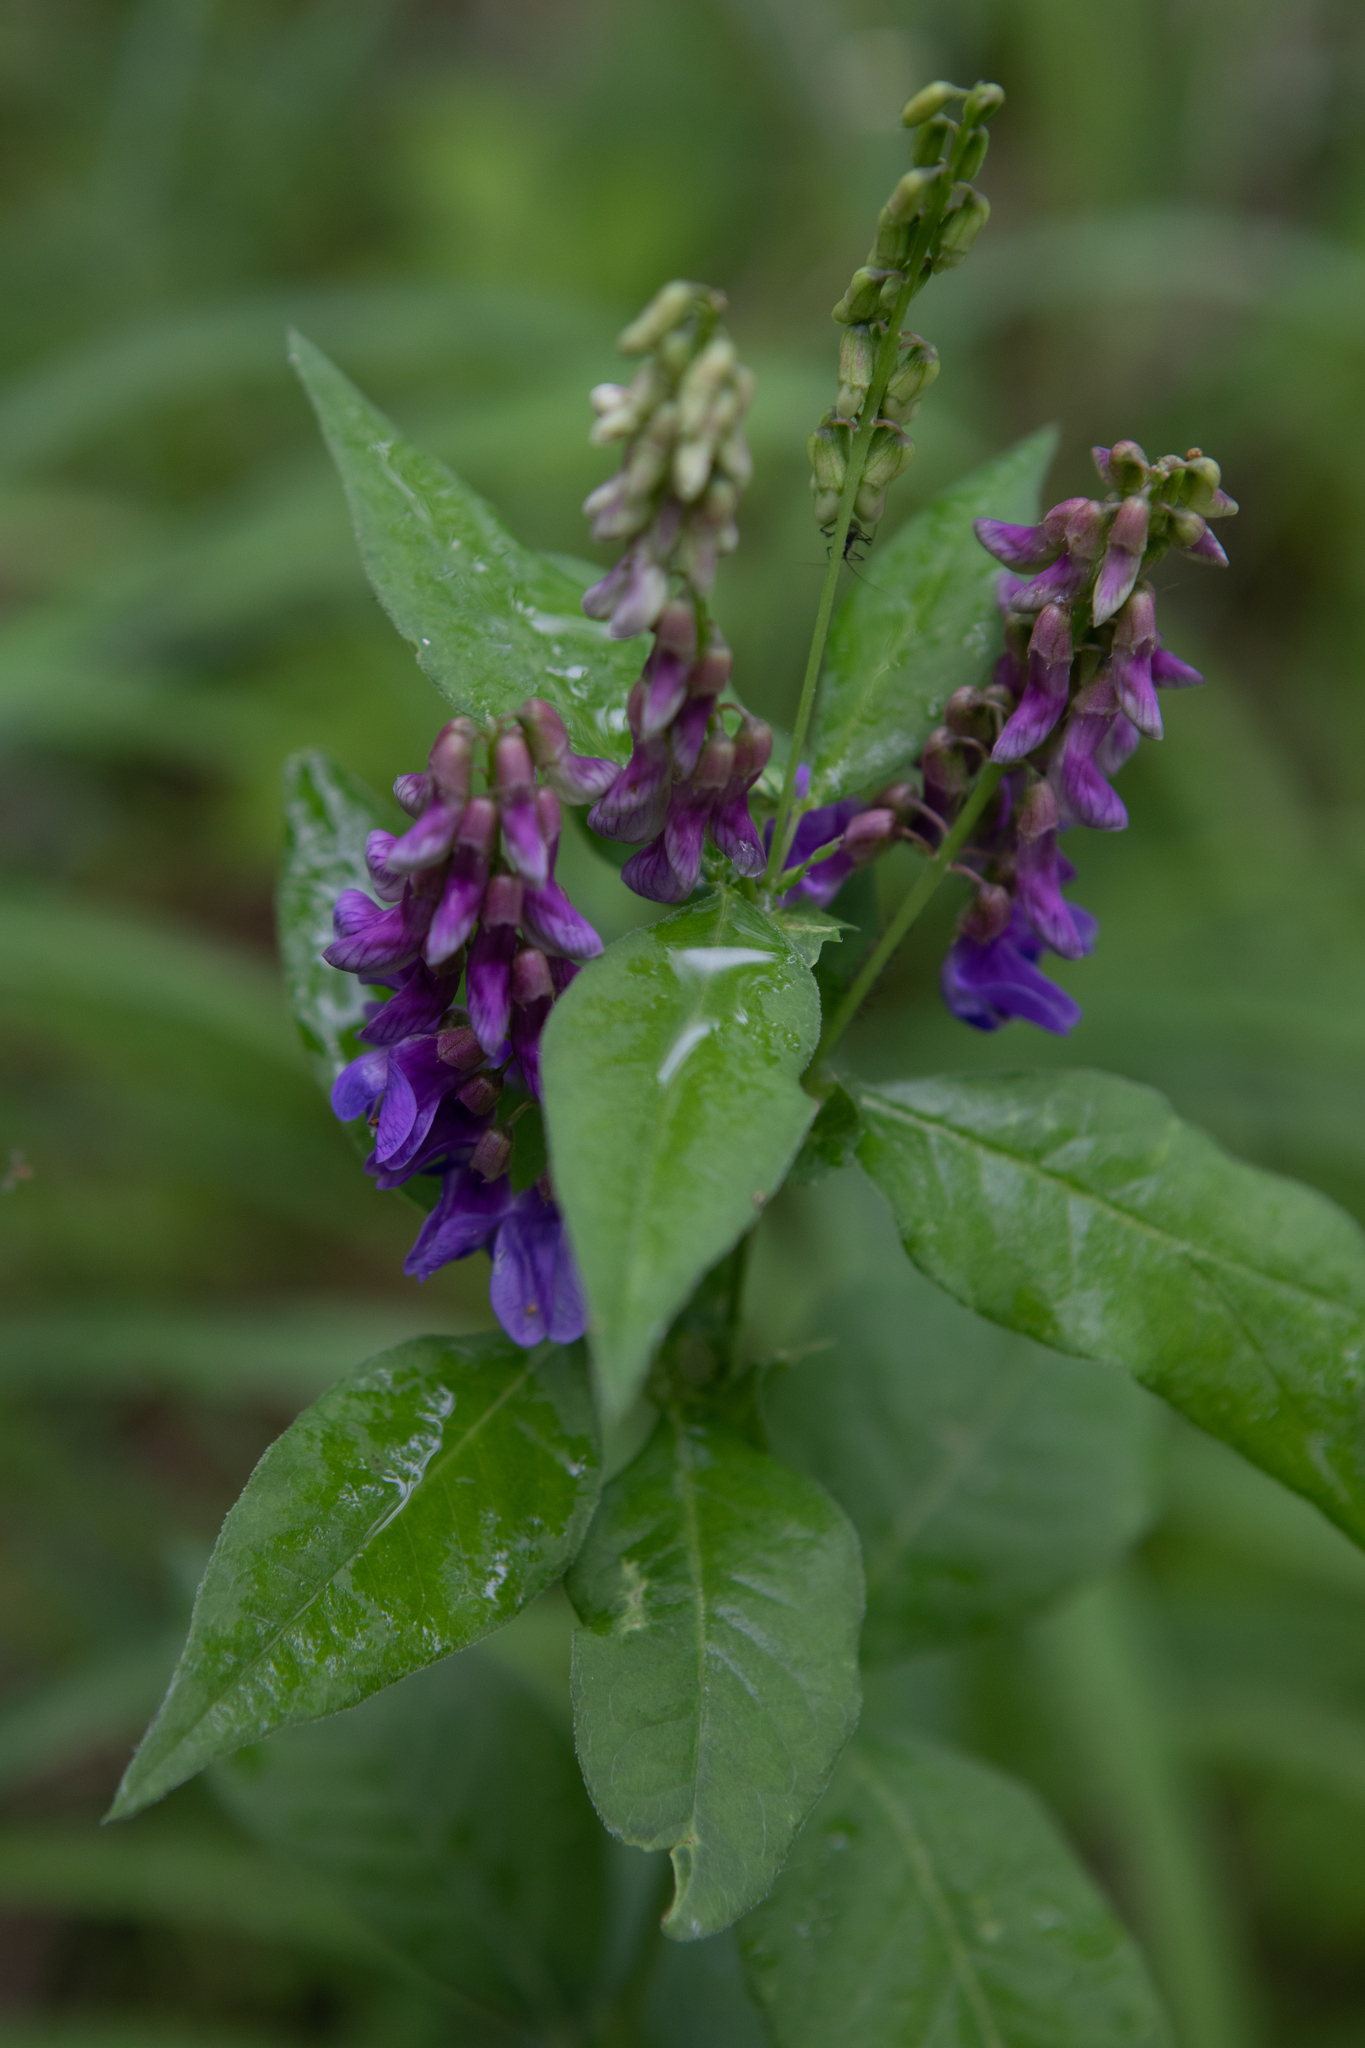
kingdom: Plantae
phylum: Tracheophyta
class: Magnoliopsida
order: Fabales
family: Fabaceae
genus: Vicia
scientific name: Vicia unijuga
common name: Two-leaf vetch
